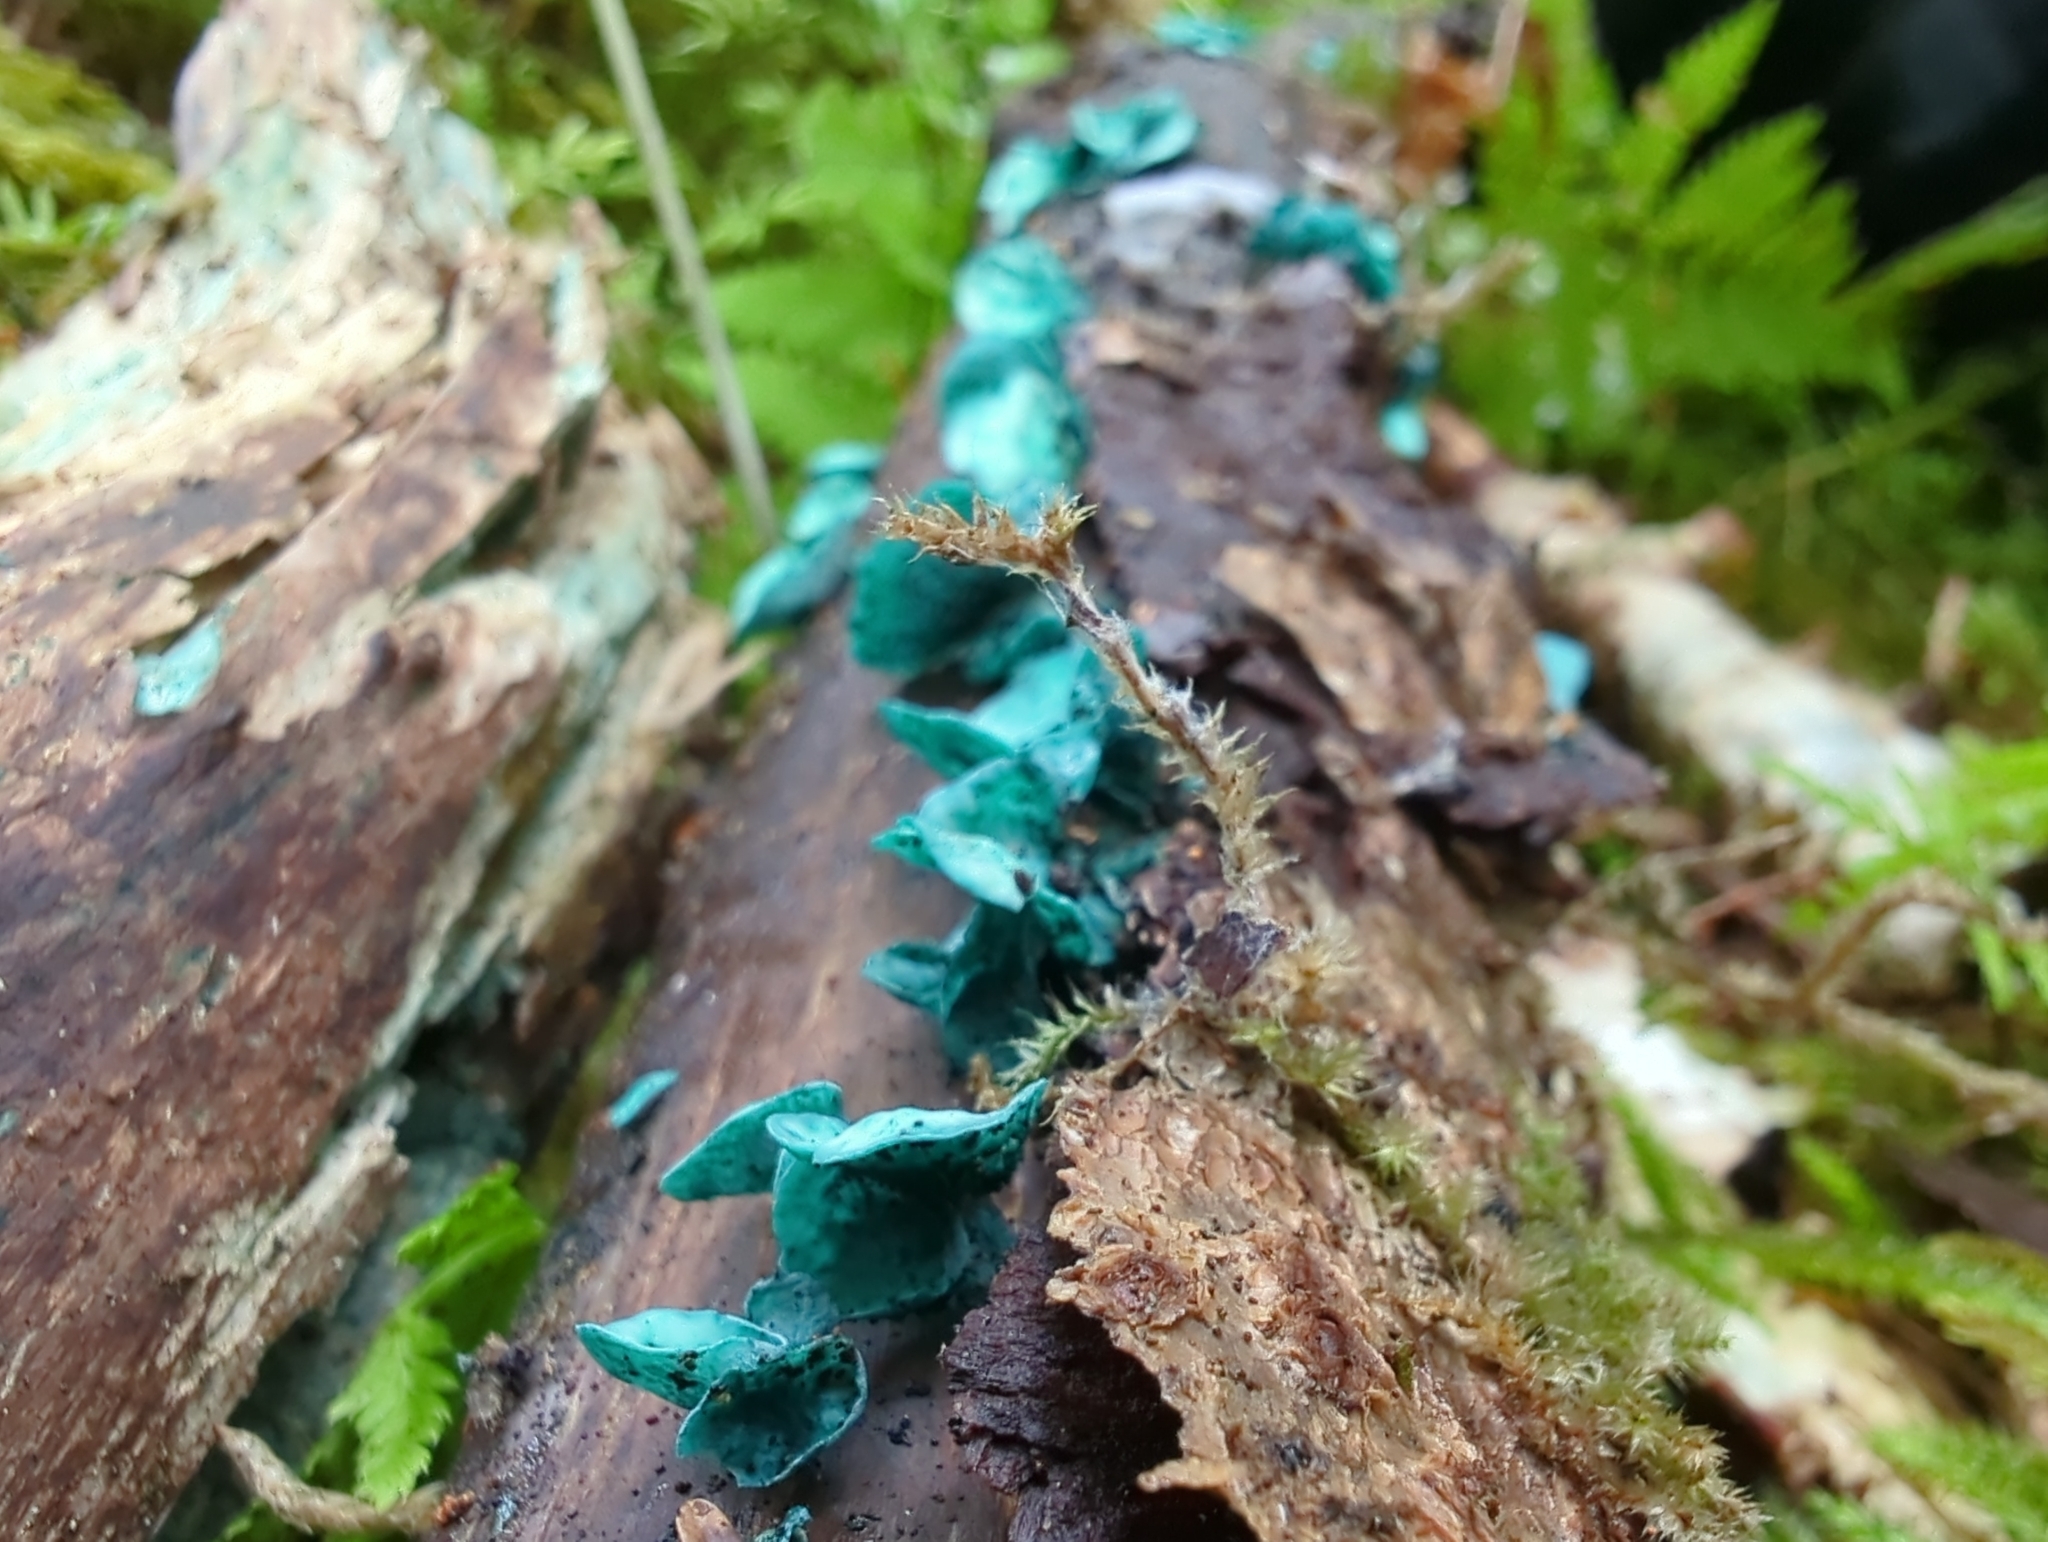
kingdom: Fungi
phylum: Ascomycota
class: Leotiomycetes
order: Helotiales
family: Chlorociboriaceae
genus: Chlorociboria
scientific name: Chlorociboria aeruginascens
